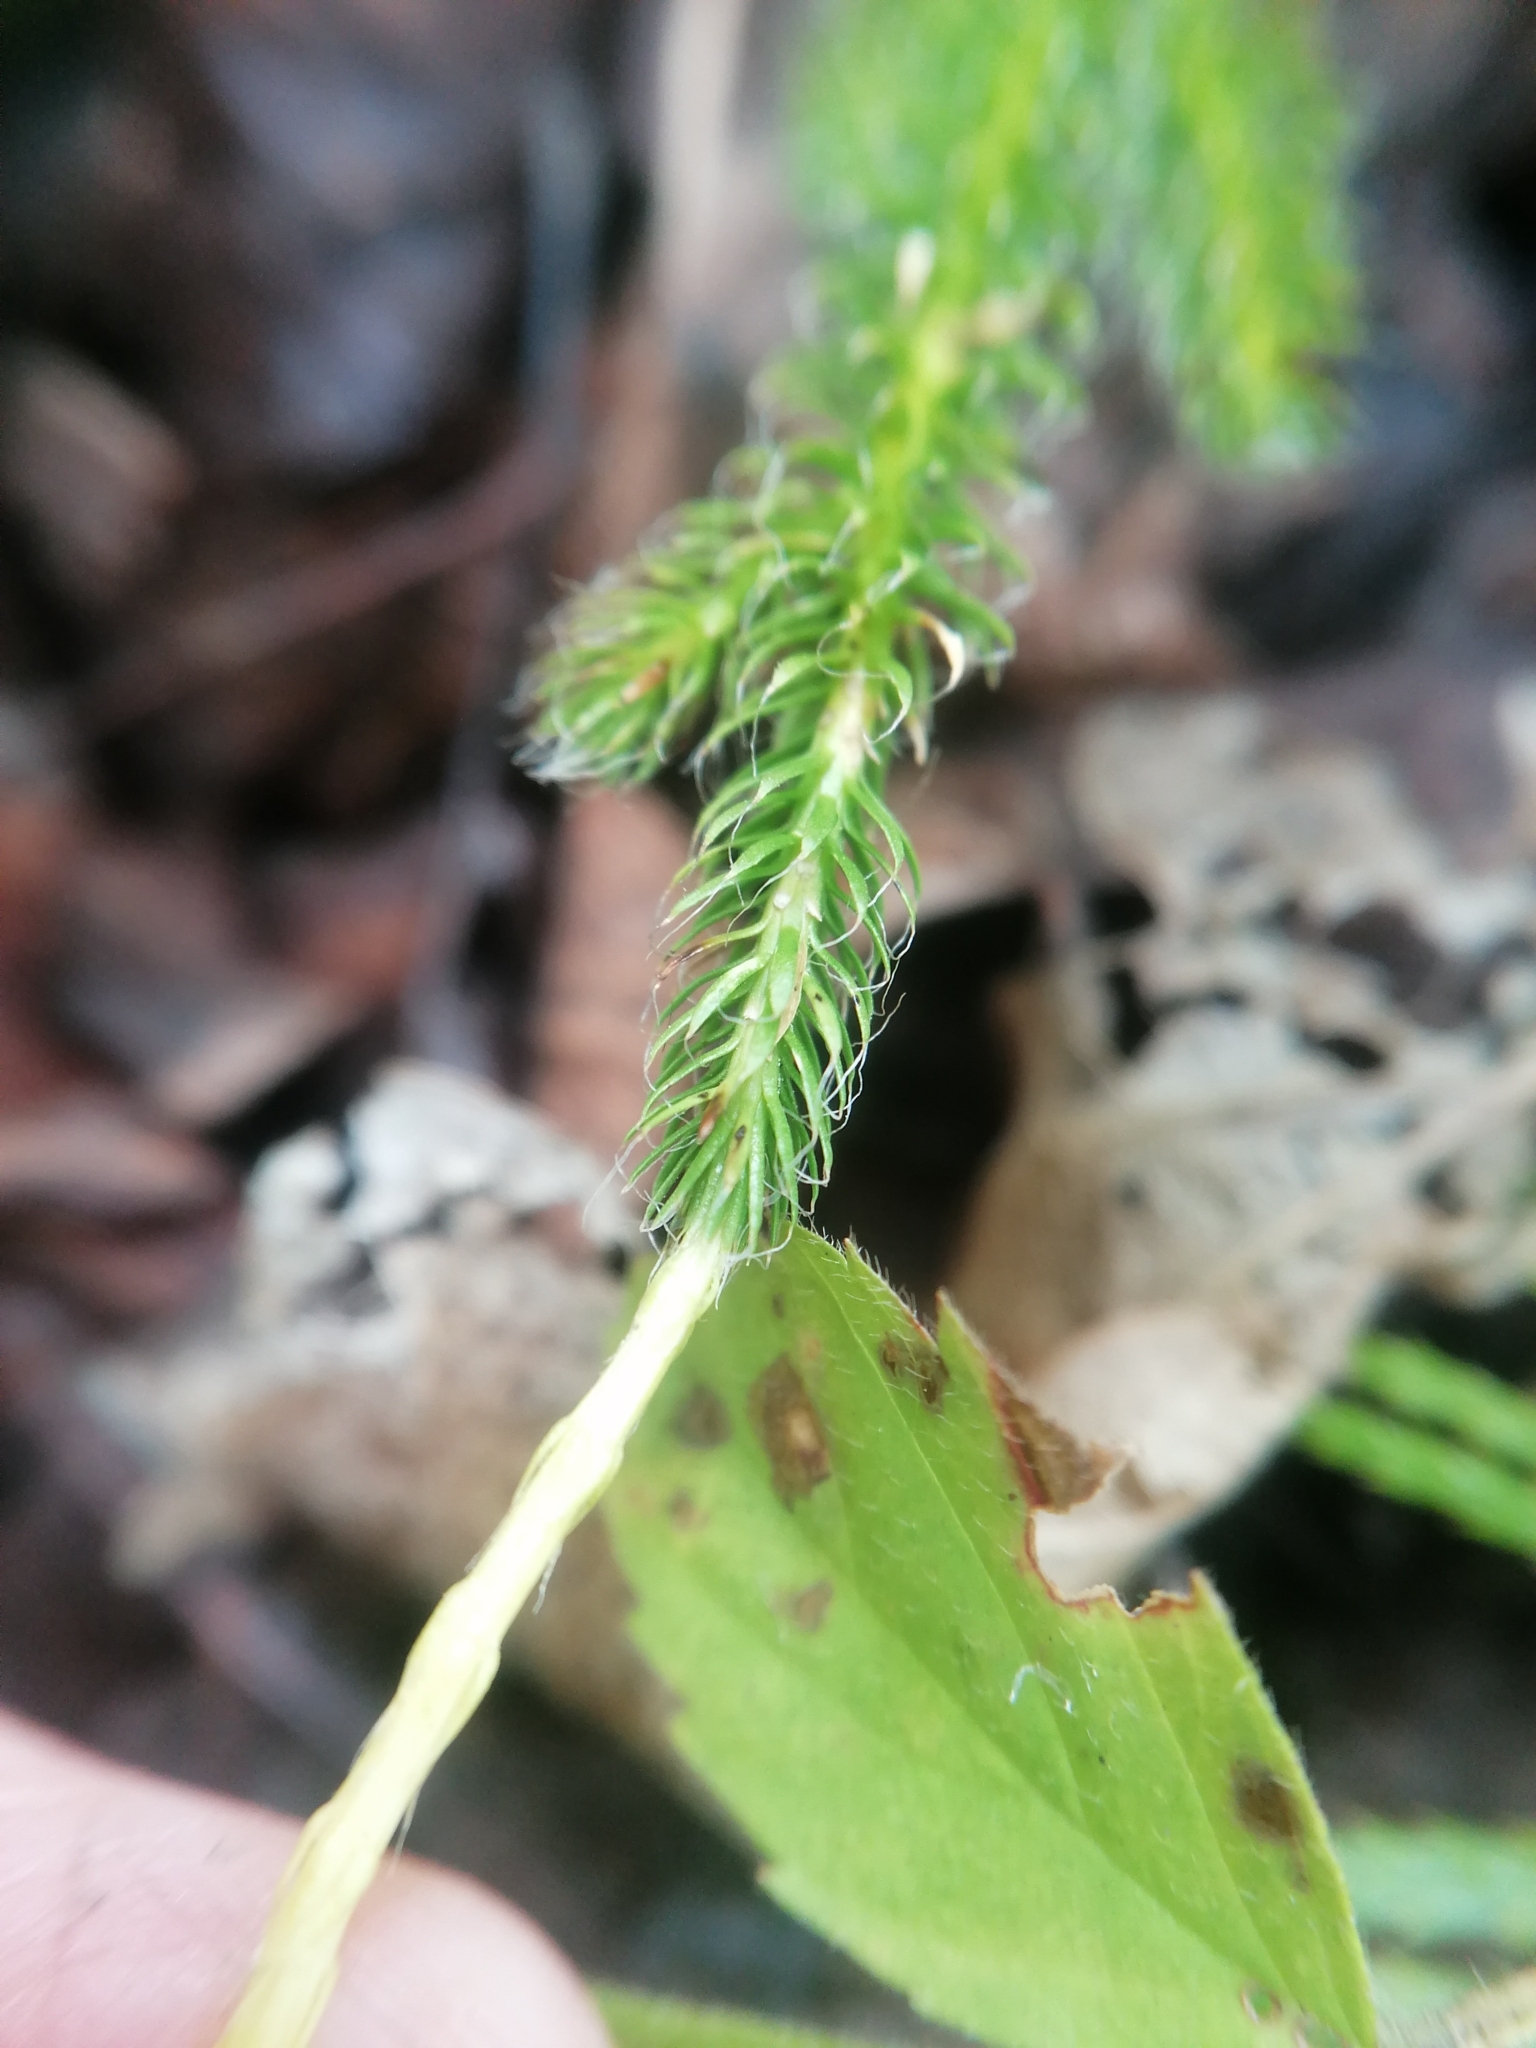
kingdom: Plantae
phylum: Tracheophyta
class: Lycopodiopsida
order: Lycopodiales
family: Lycopodiaceae
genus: Lycopodium
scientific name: Lycopodium lagopus
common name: One-cone clubmoss
